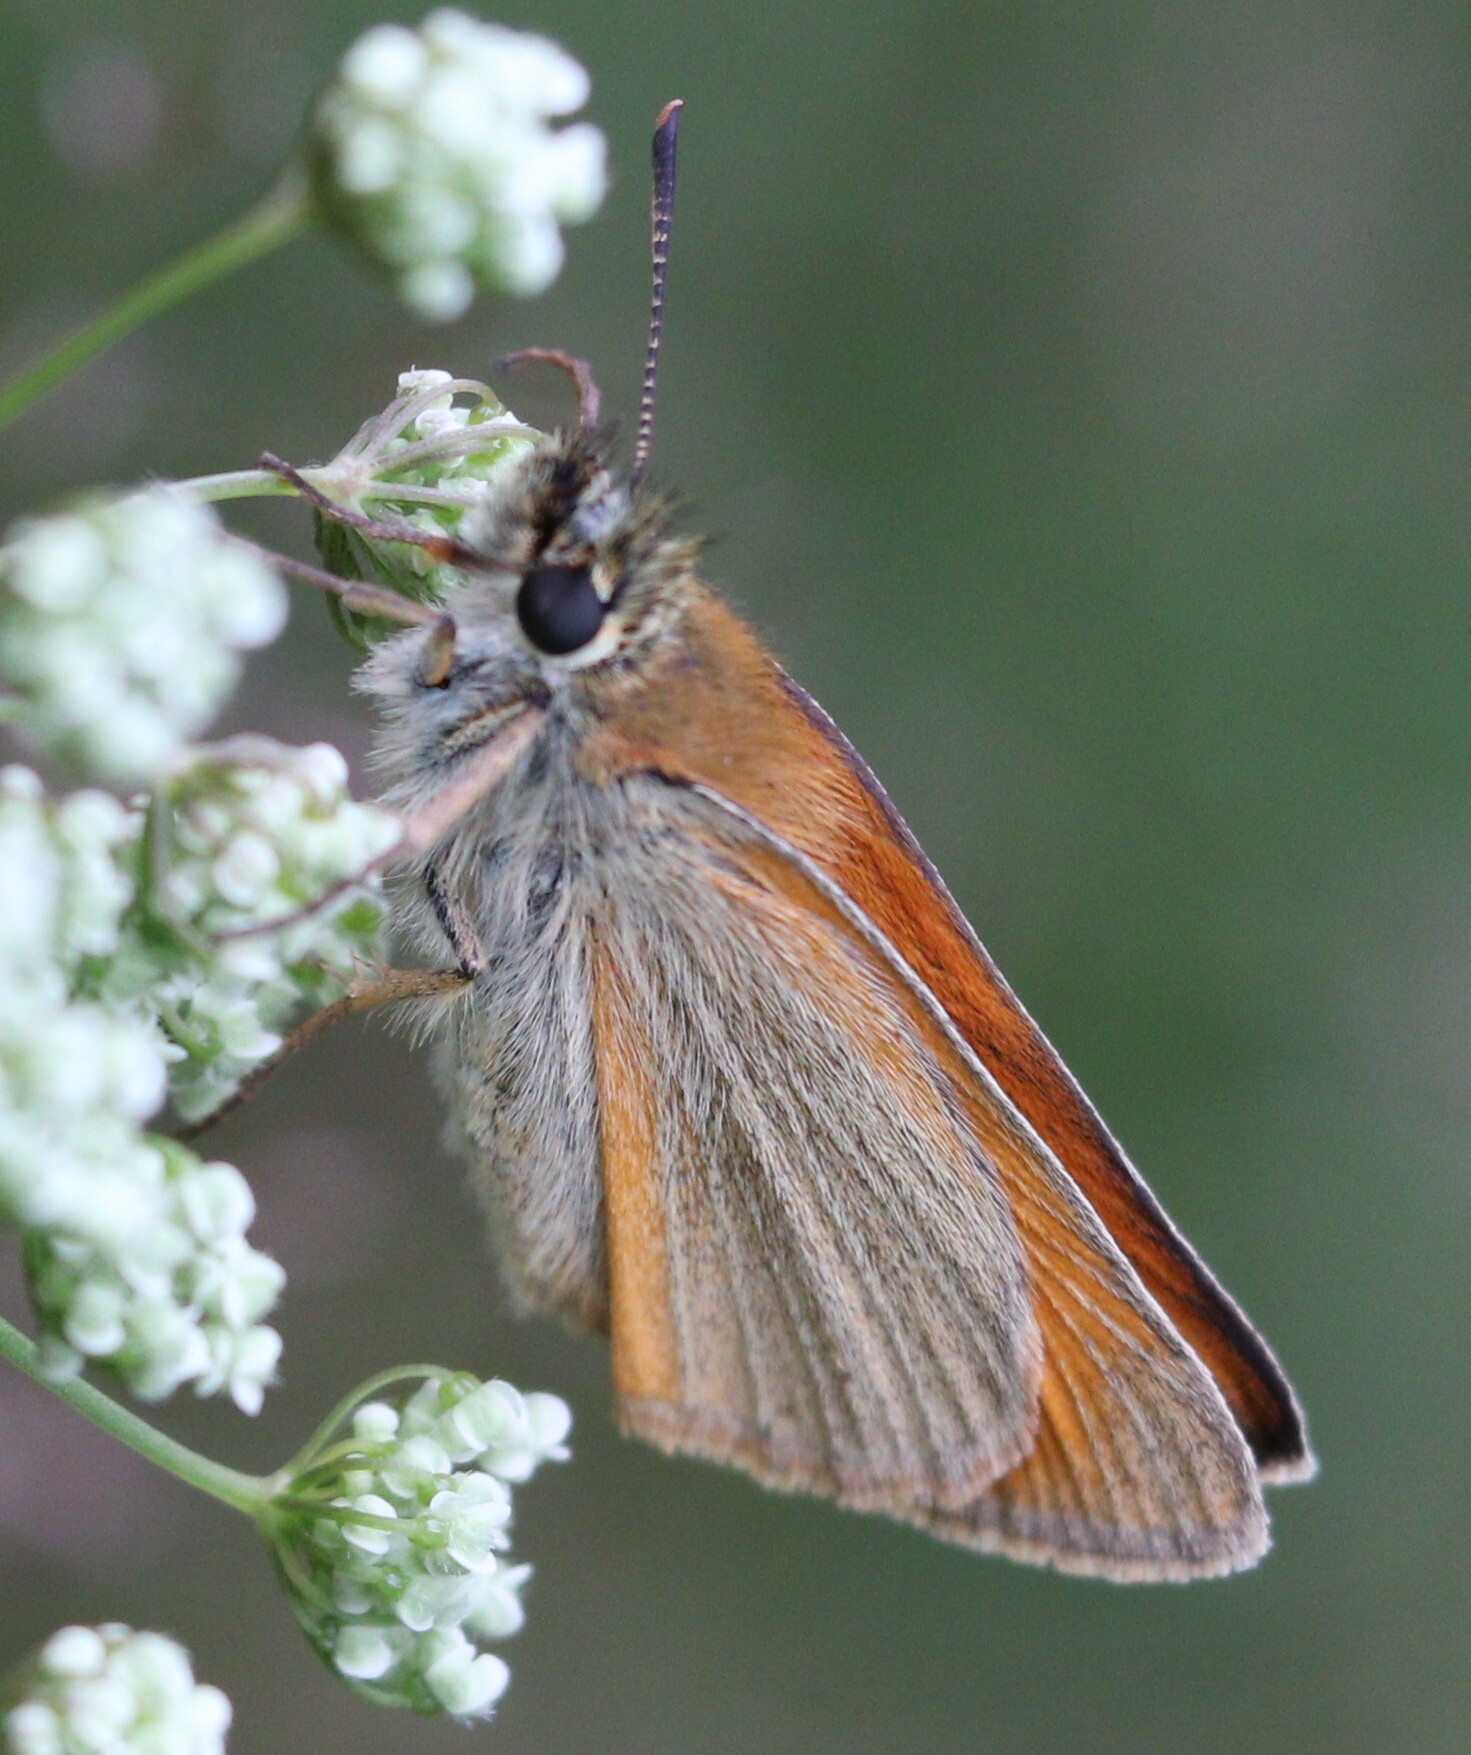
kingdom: Animalia
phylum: Arthropoda
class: Insecta
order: Lepidoptera
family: Hesperiidae
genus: Thymelicus
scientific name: Thymelicus sylvestris
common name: Small skipper
